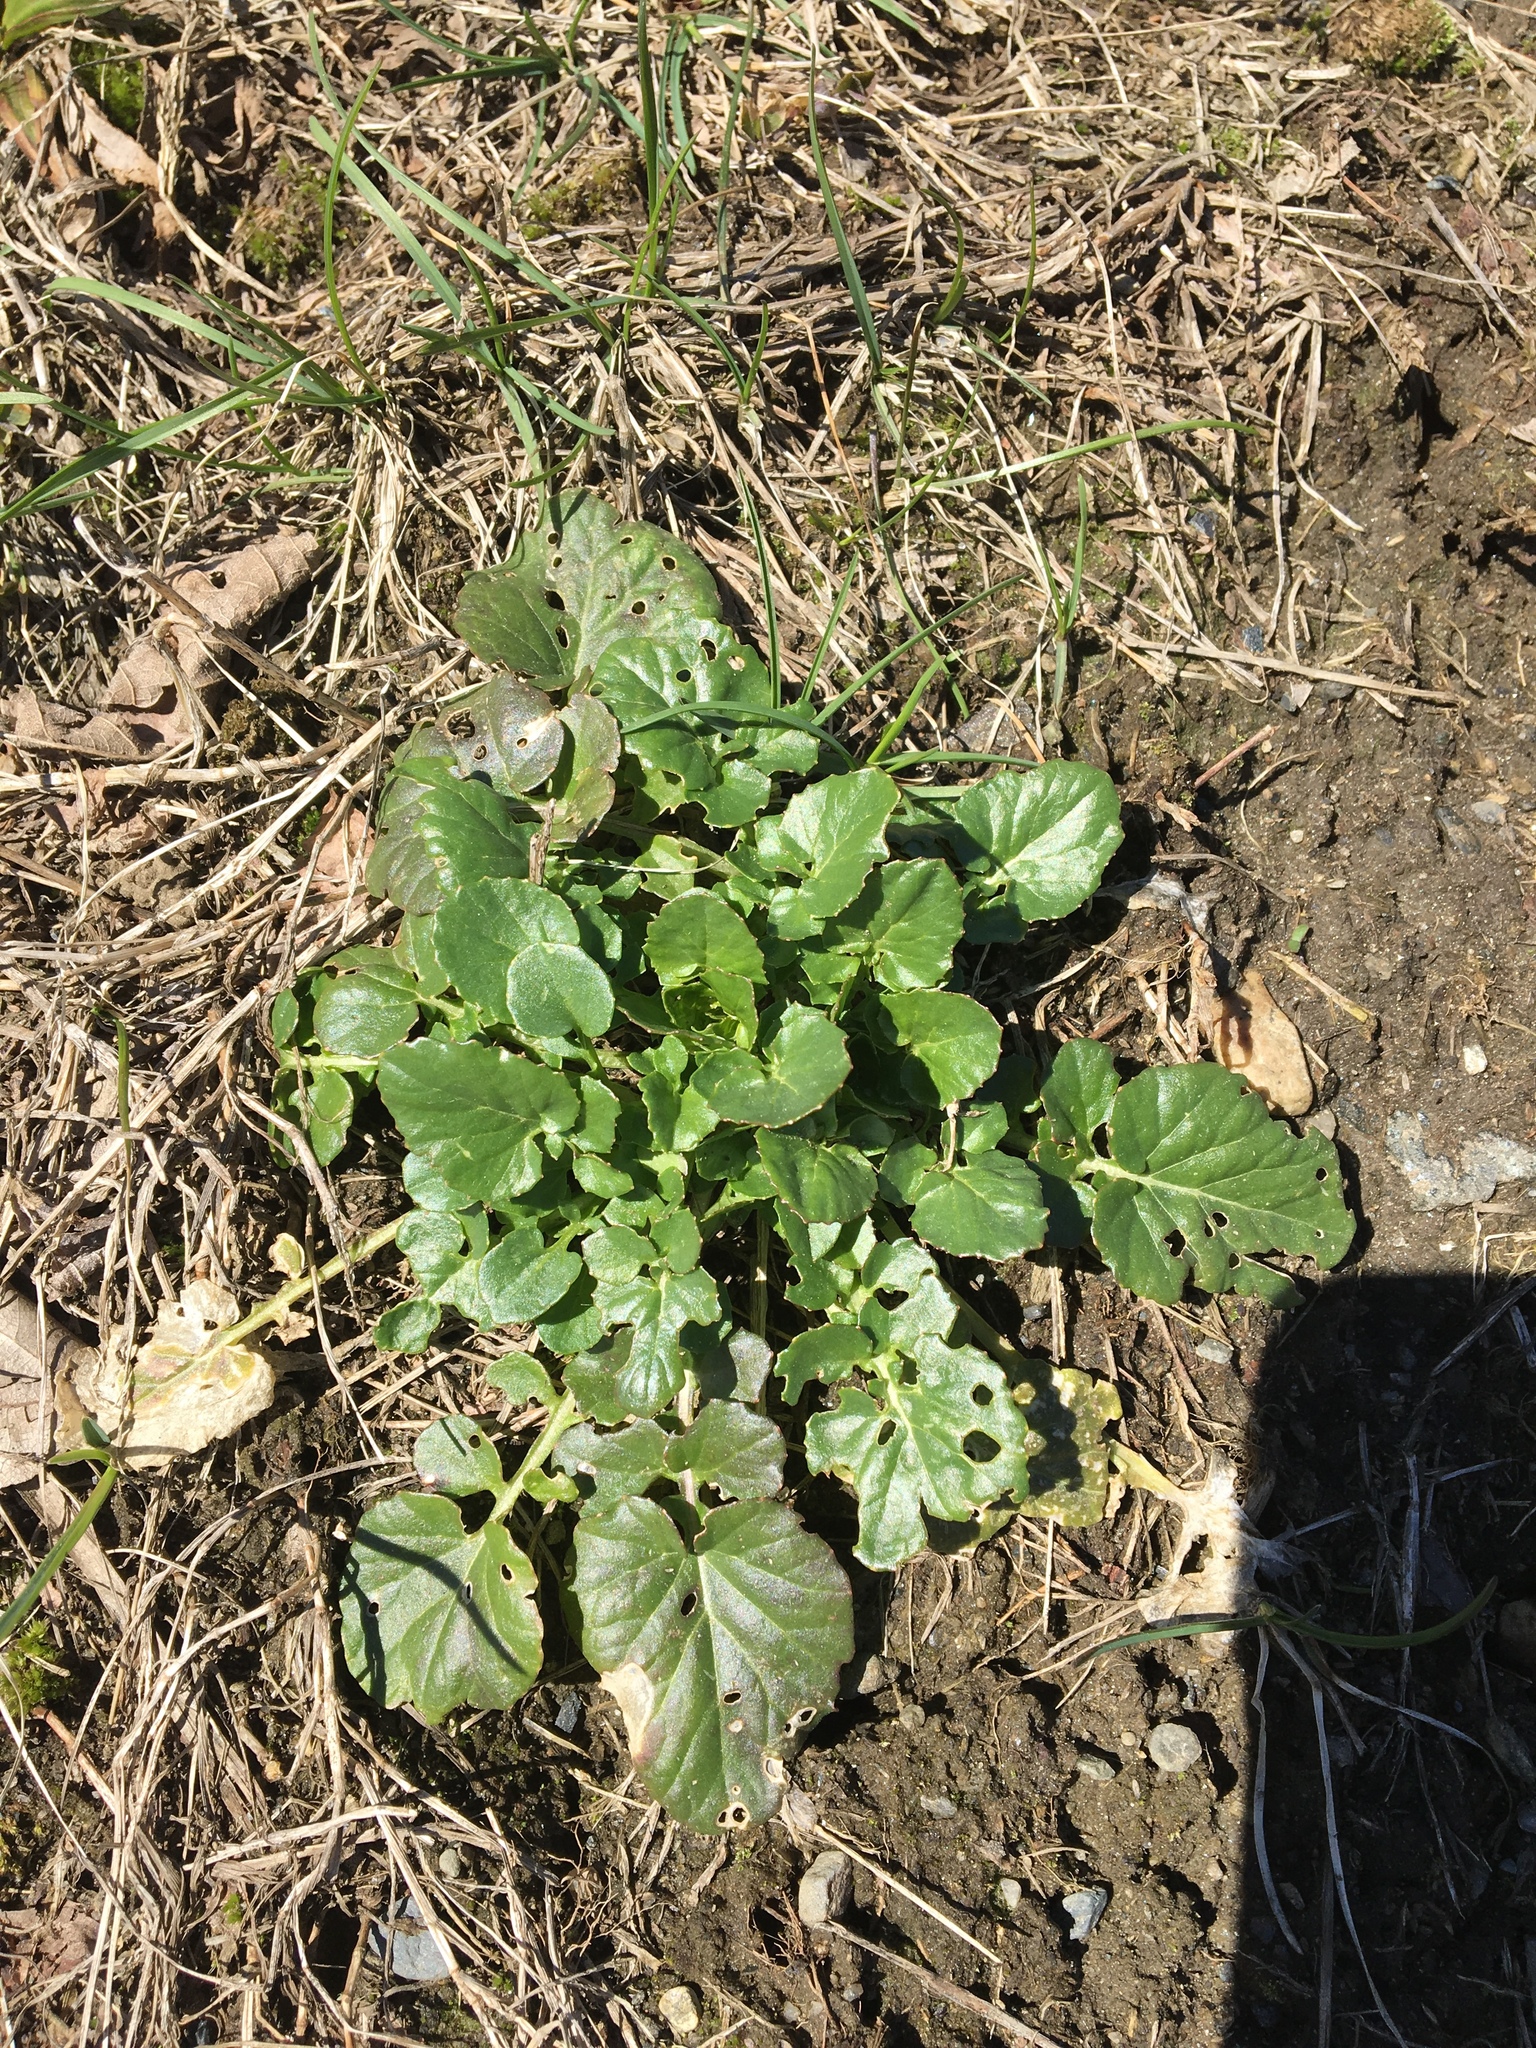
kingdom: Plantae
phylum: Tracheophyta
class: Magnoliopsida
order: Brassicales
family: Brassicaceae
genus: Barbarea
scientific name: Barbarea vulgaris
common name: Cressy-greens
